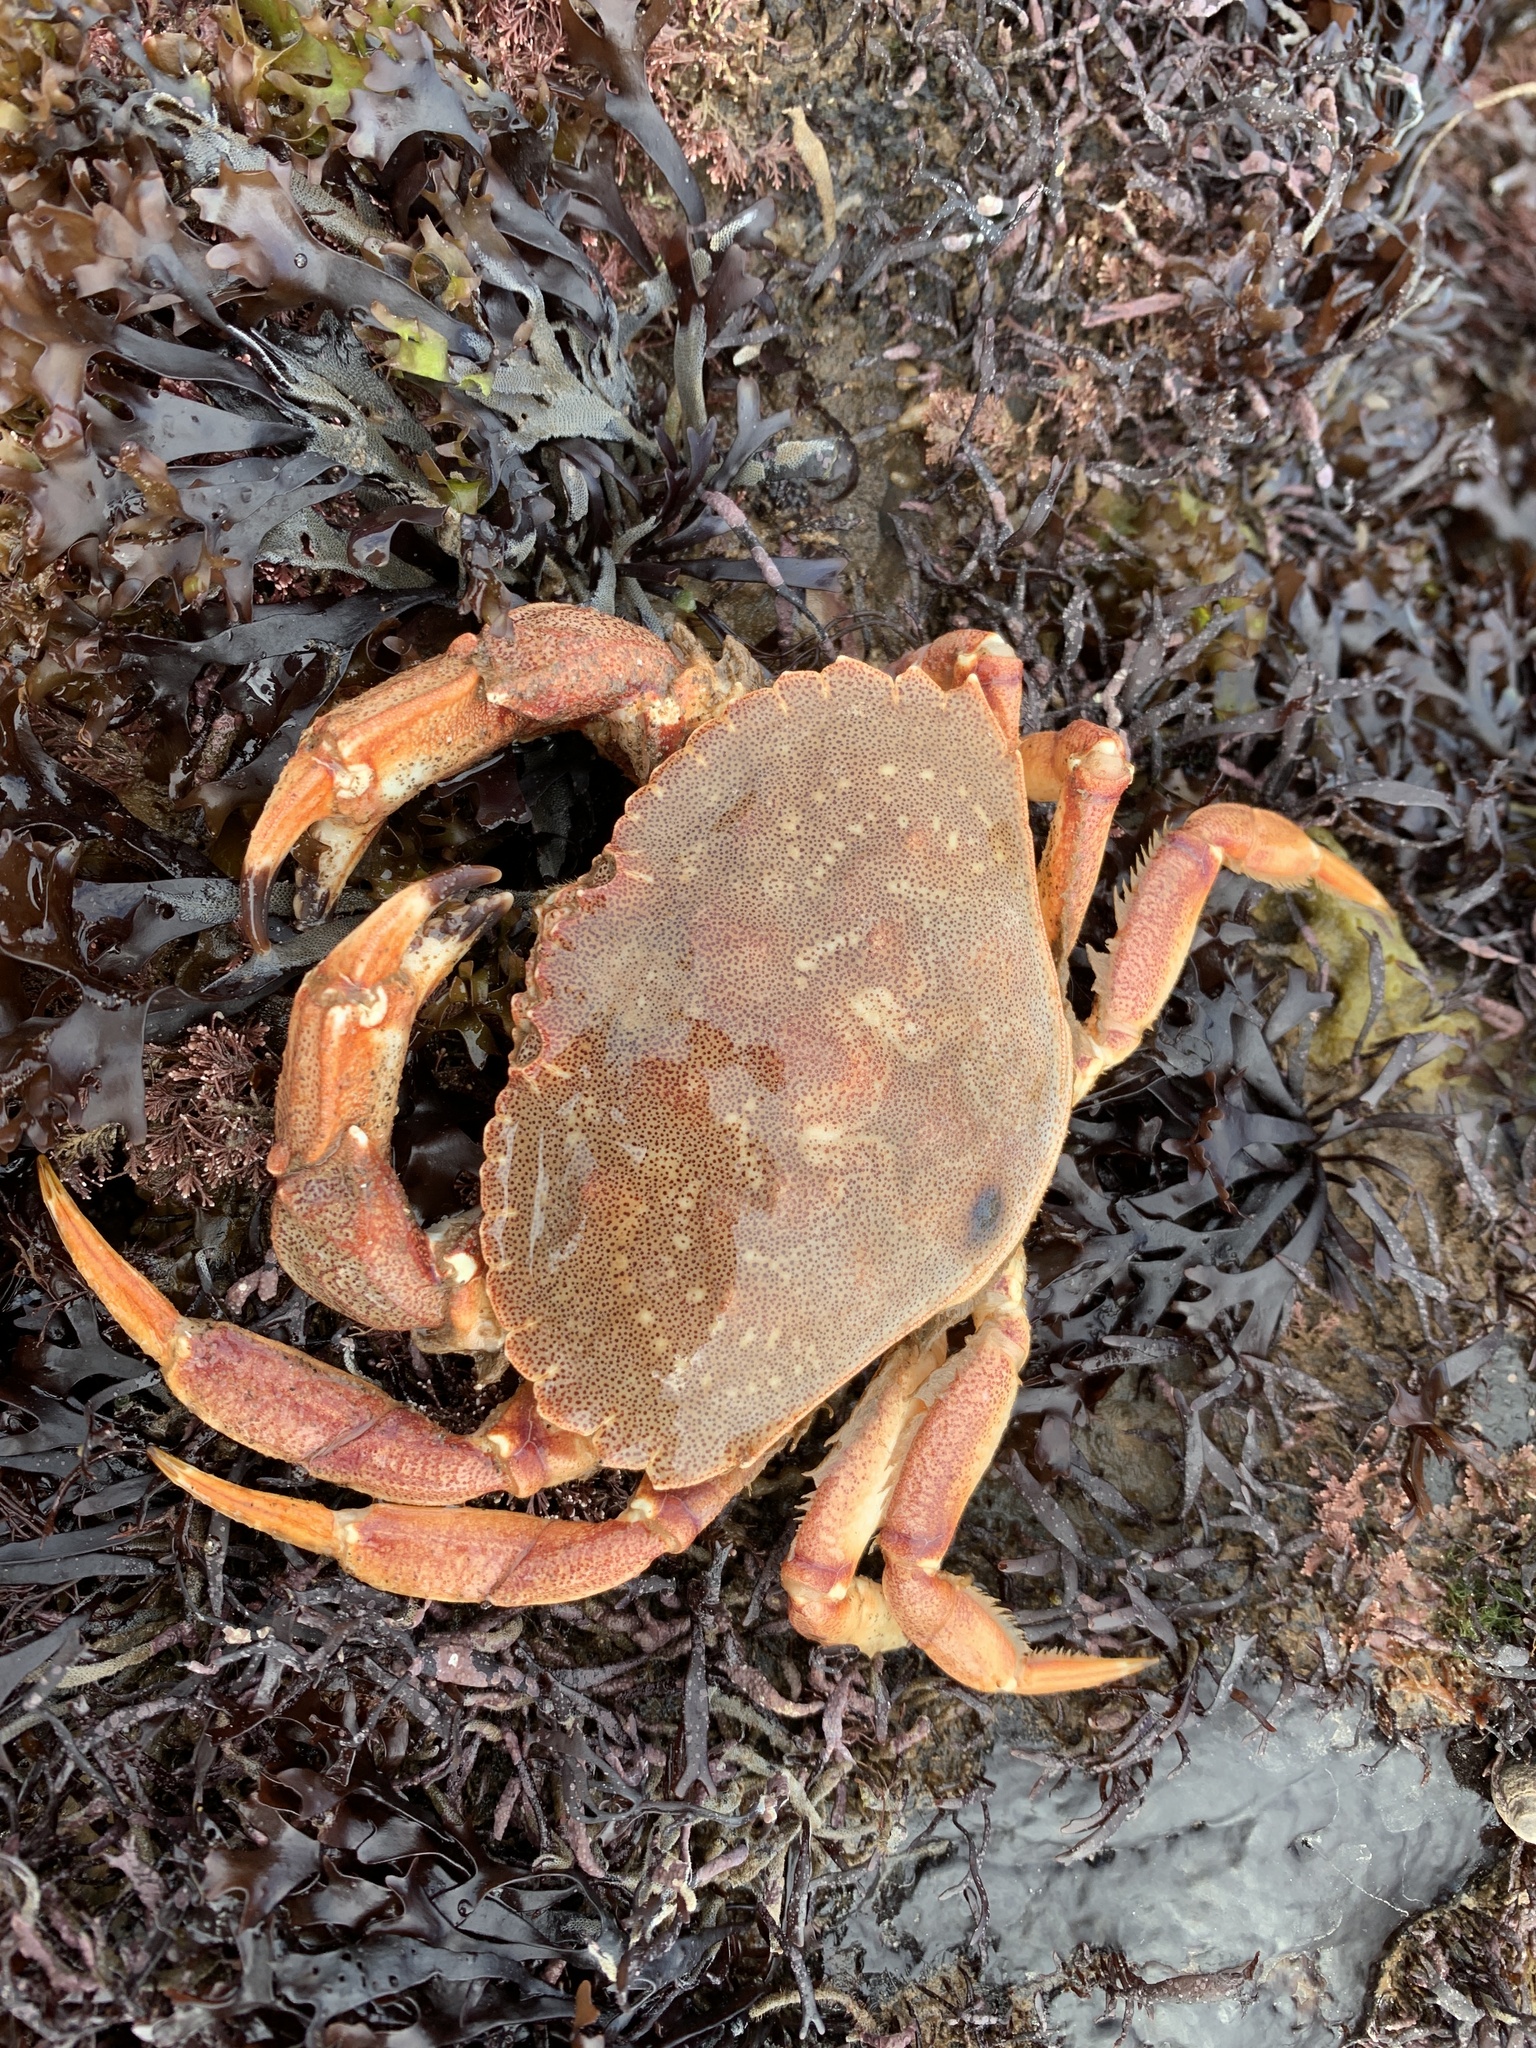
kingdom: Animalia
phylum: Arthropoda
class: Malacostraca
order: Decapoda
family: Cancridae
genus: Cancer
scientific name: Cancer irroratus
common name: Atlantic rock crab
